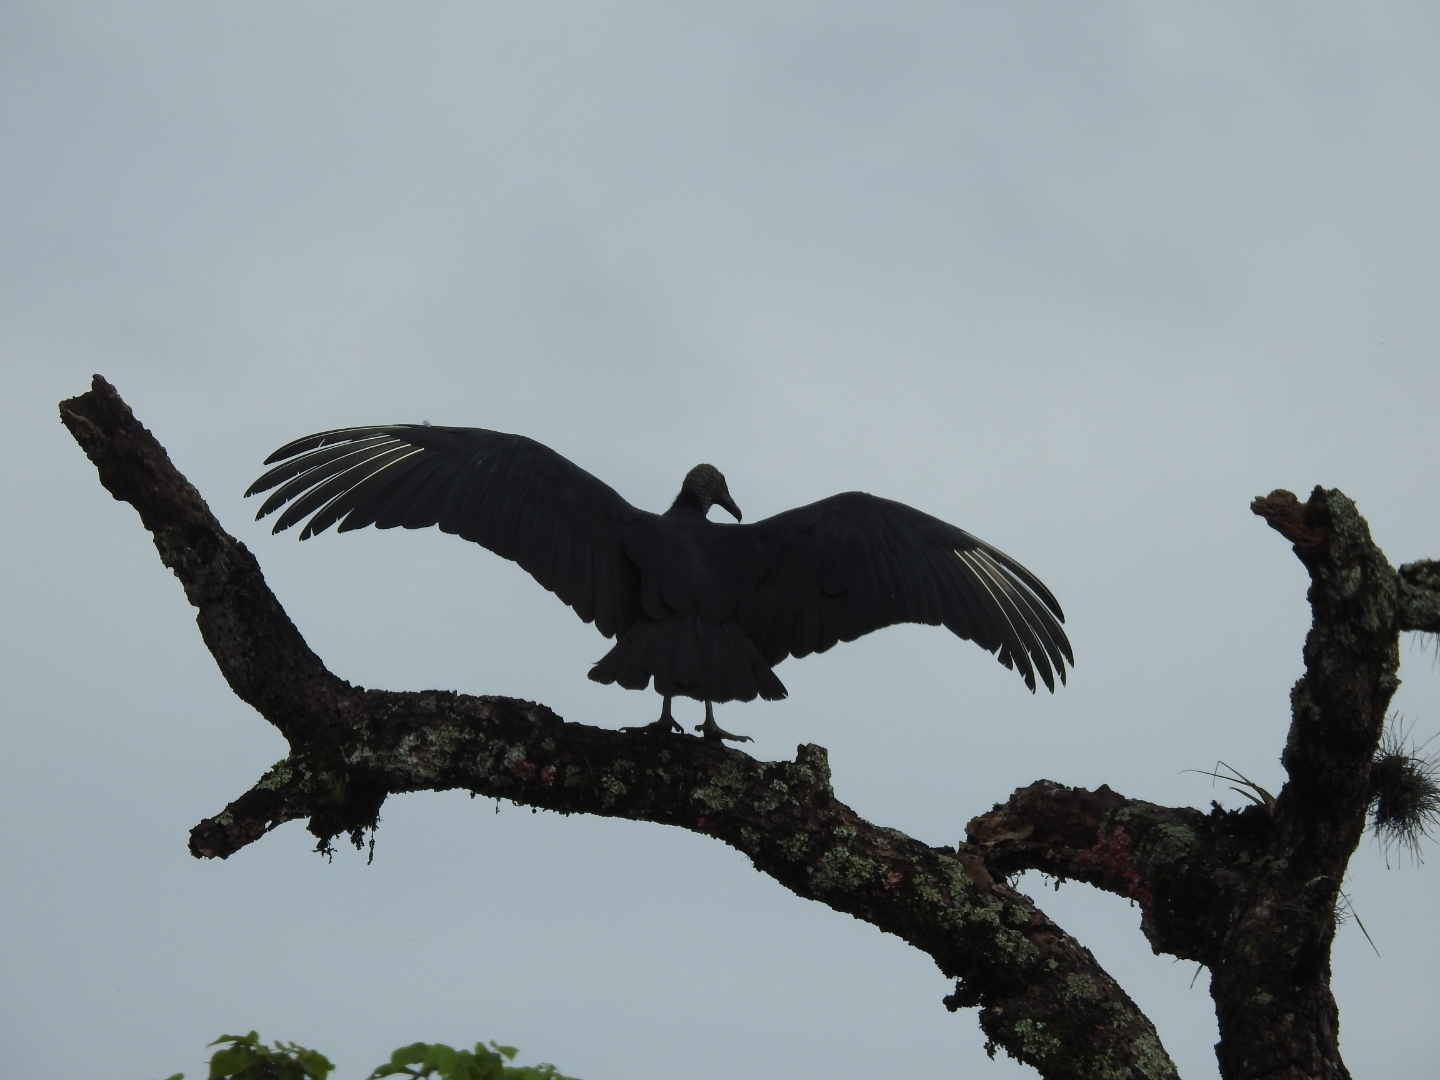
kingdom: Animalia
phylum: Chordata
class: Aves
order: Accipitriformes
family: Cathartidae
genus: Coragyps
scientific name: Coragyps atratus
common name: Black vulture
